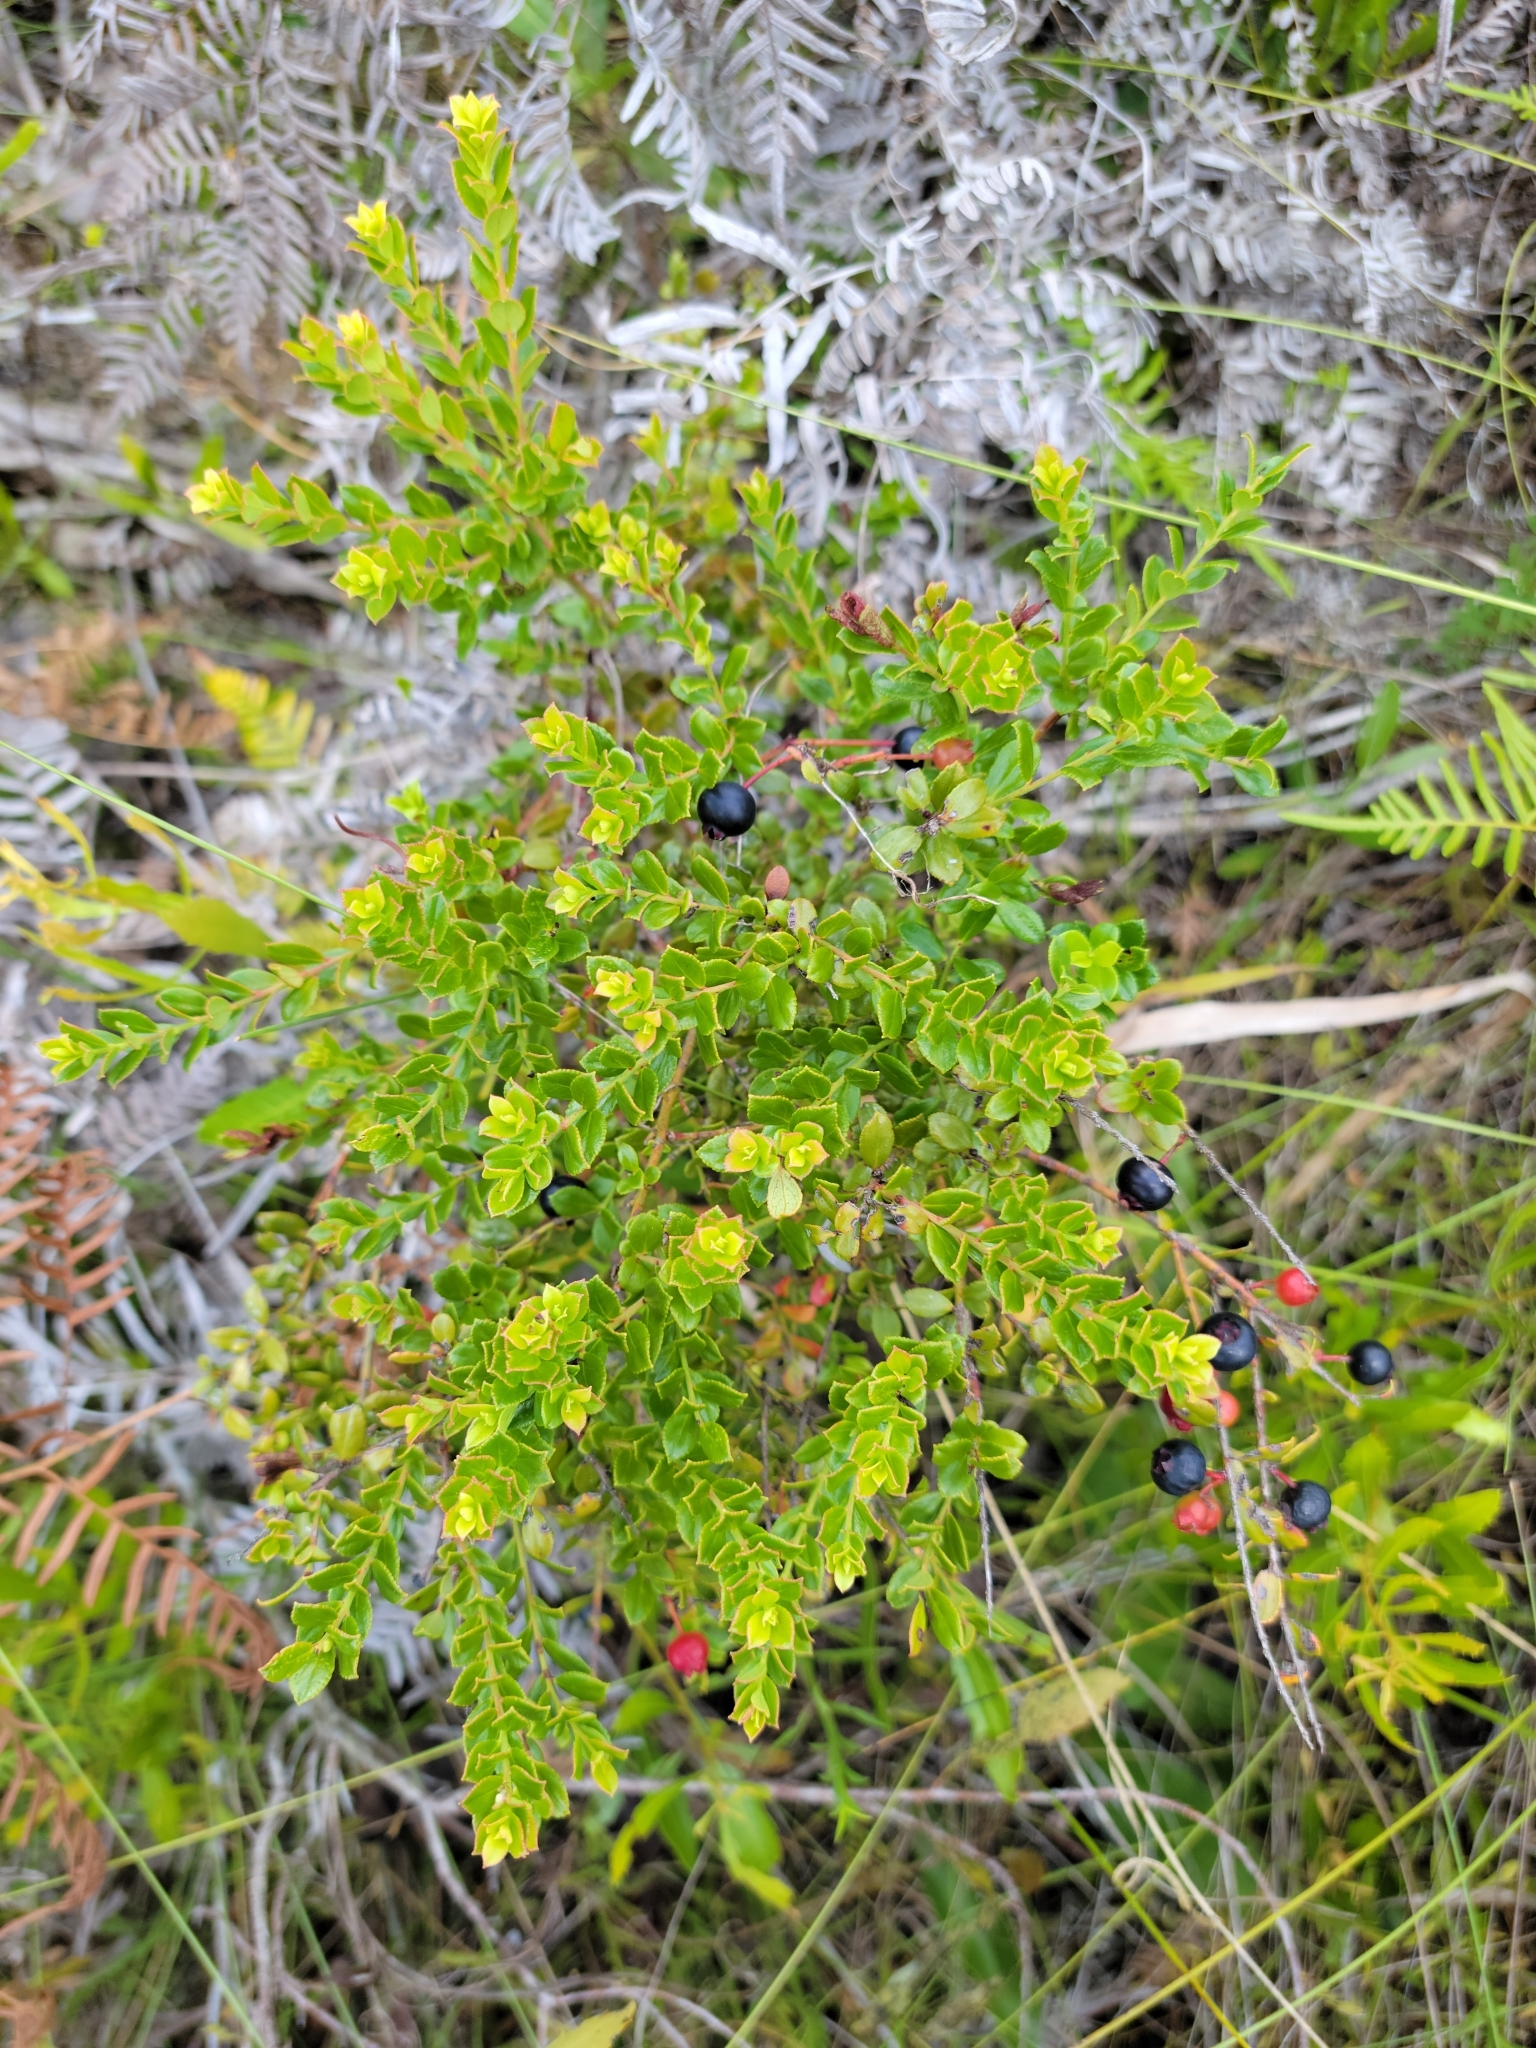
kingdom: Plantae
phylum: Tracheophyta
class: Magnoliopsida
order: Ericales
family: Ericaceae
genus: Vaccinium
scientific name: Vaccinium myrsinites
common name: Evergreen blueberry
